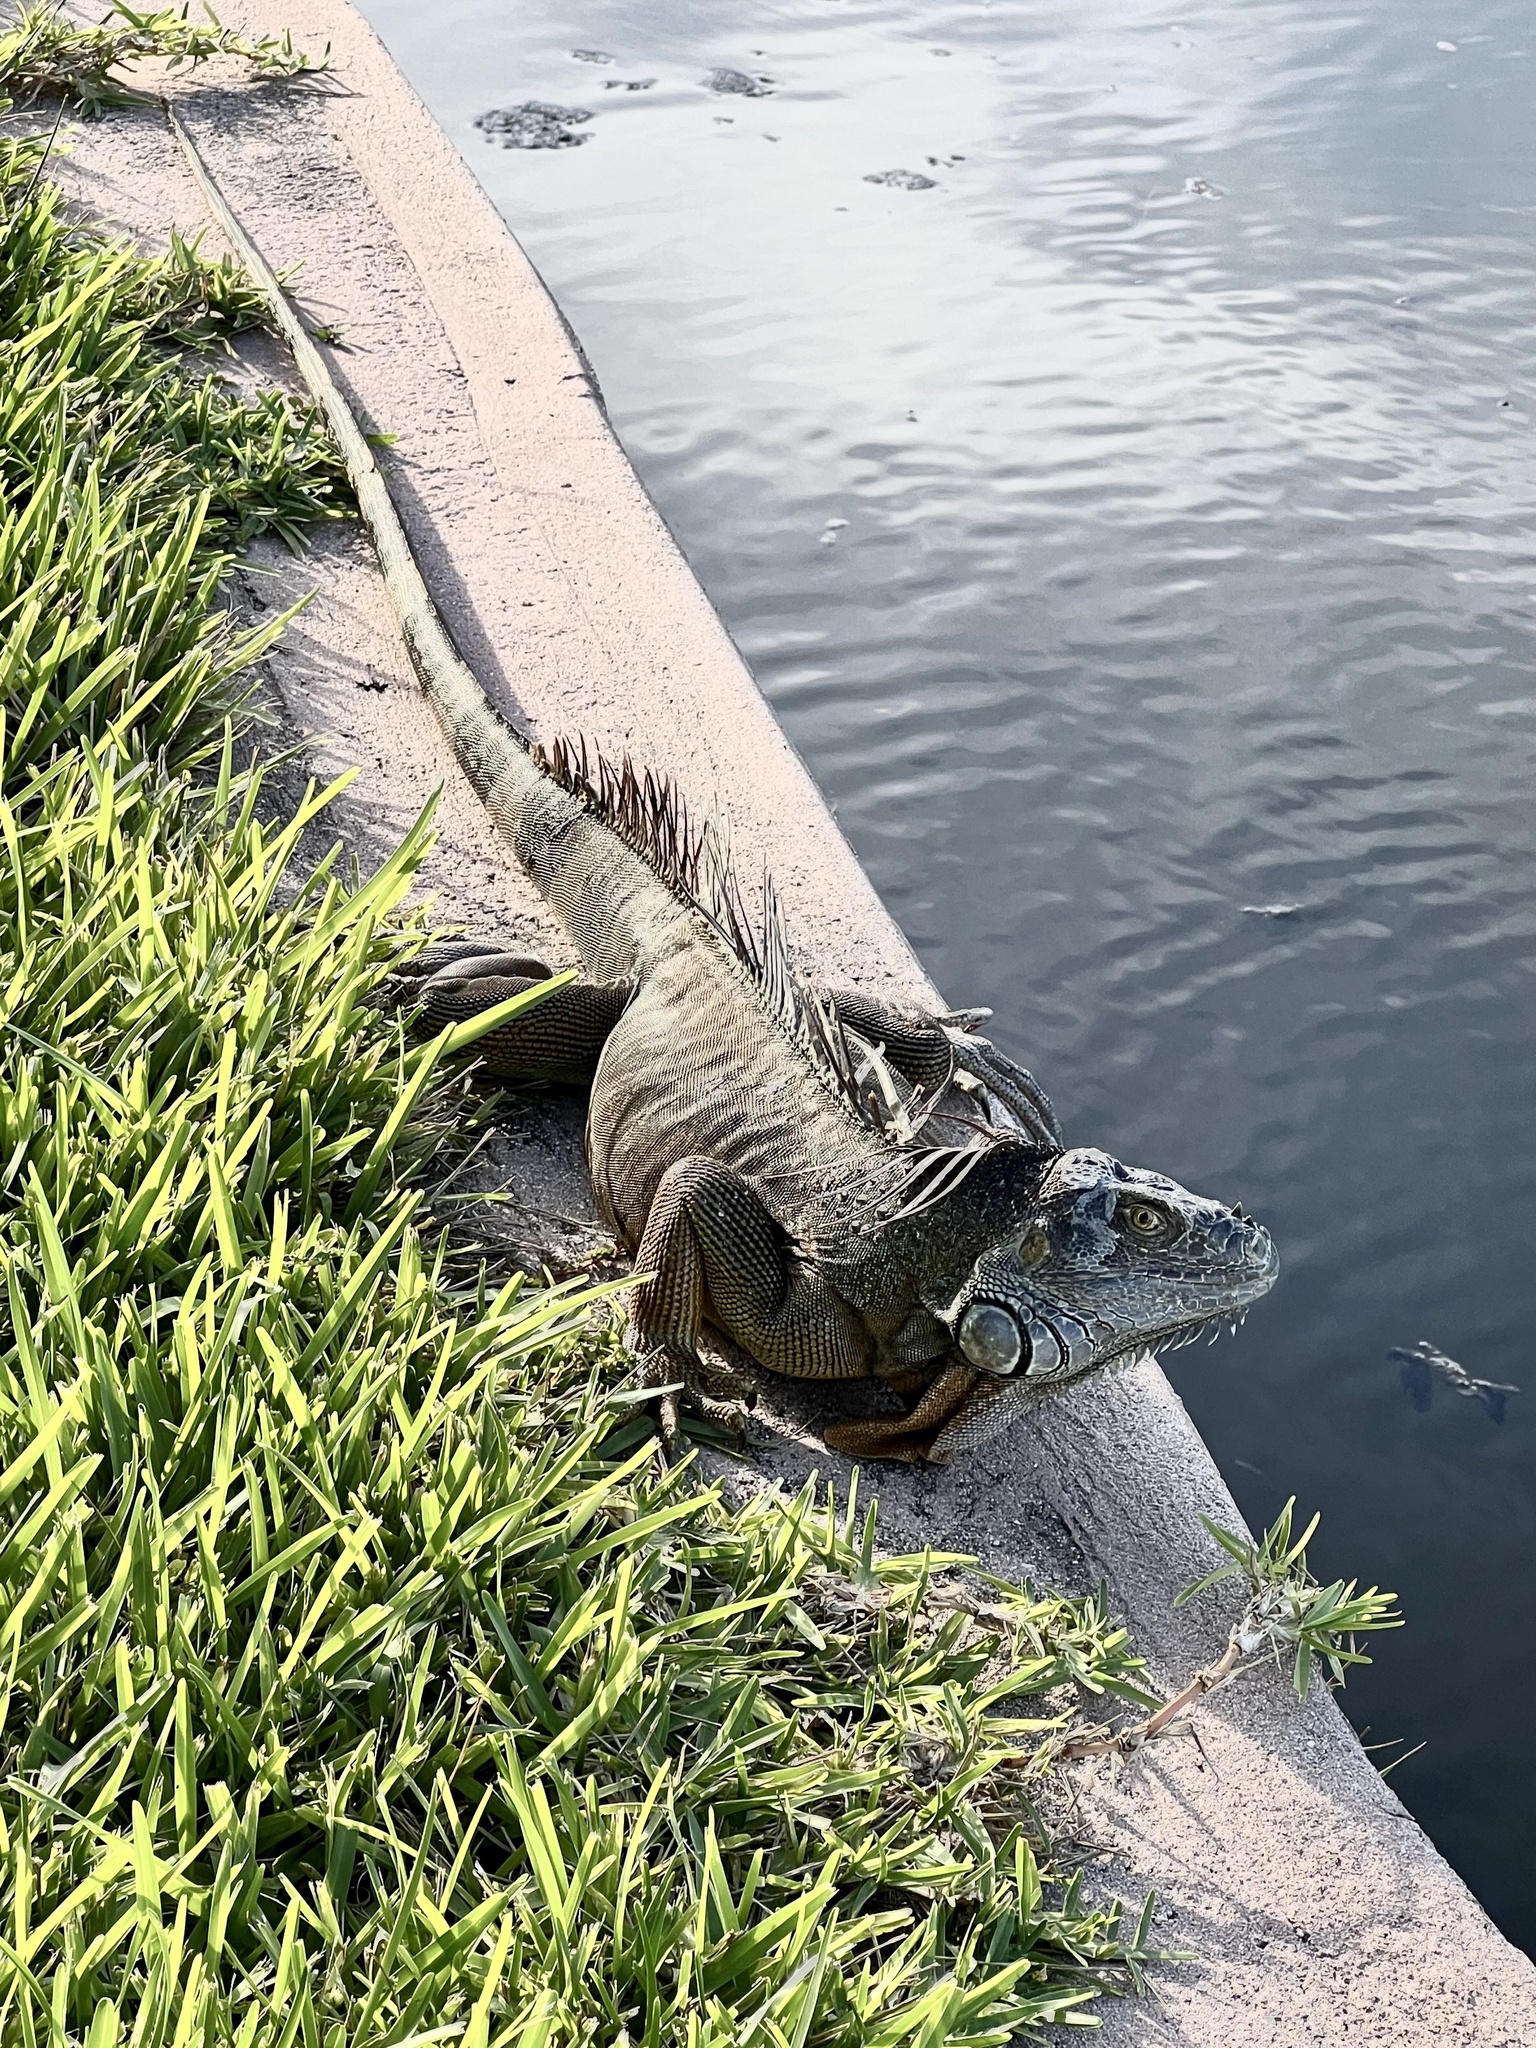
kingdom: Animalia
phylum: Chordata
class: Squamata
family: Iguanidae
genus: Iguana
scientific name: Iguana iguana
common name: Green iguana
